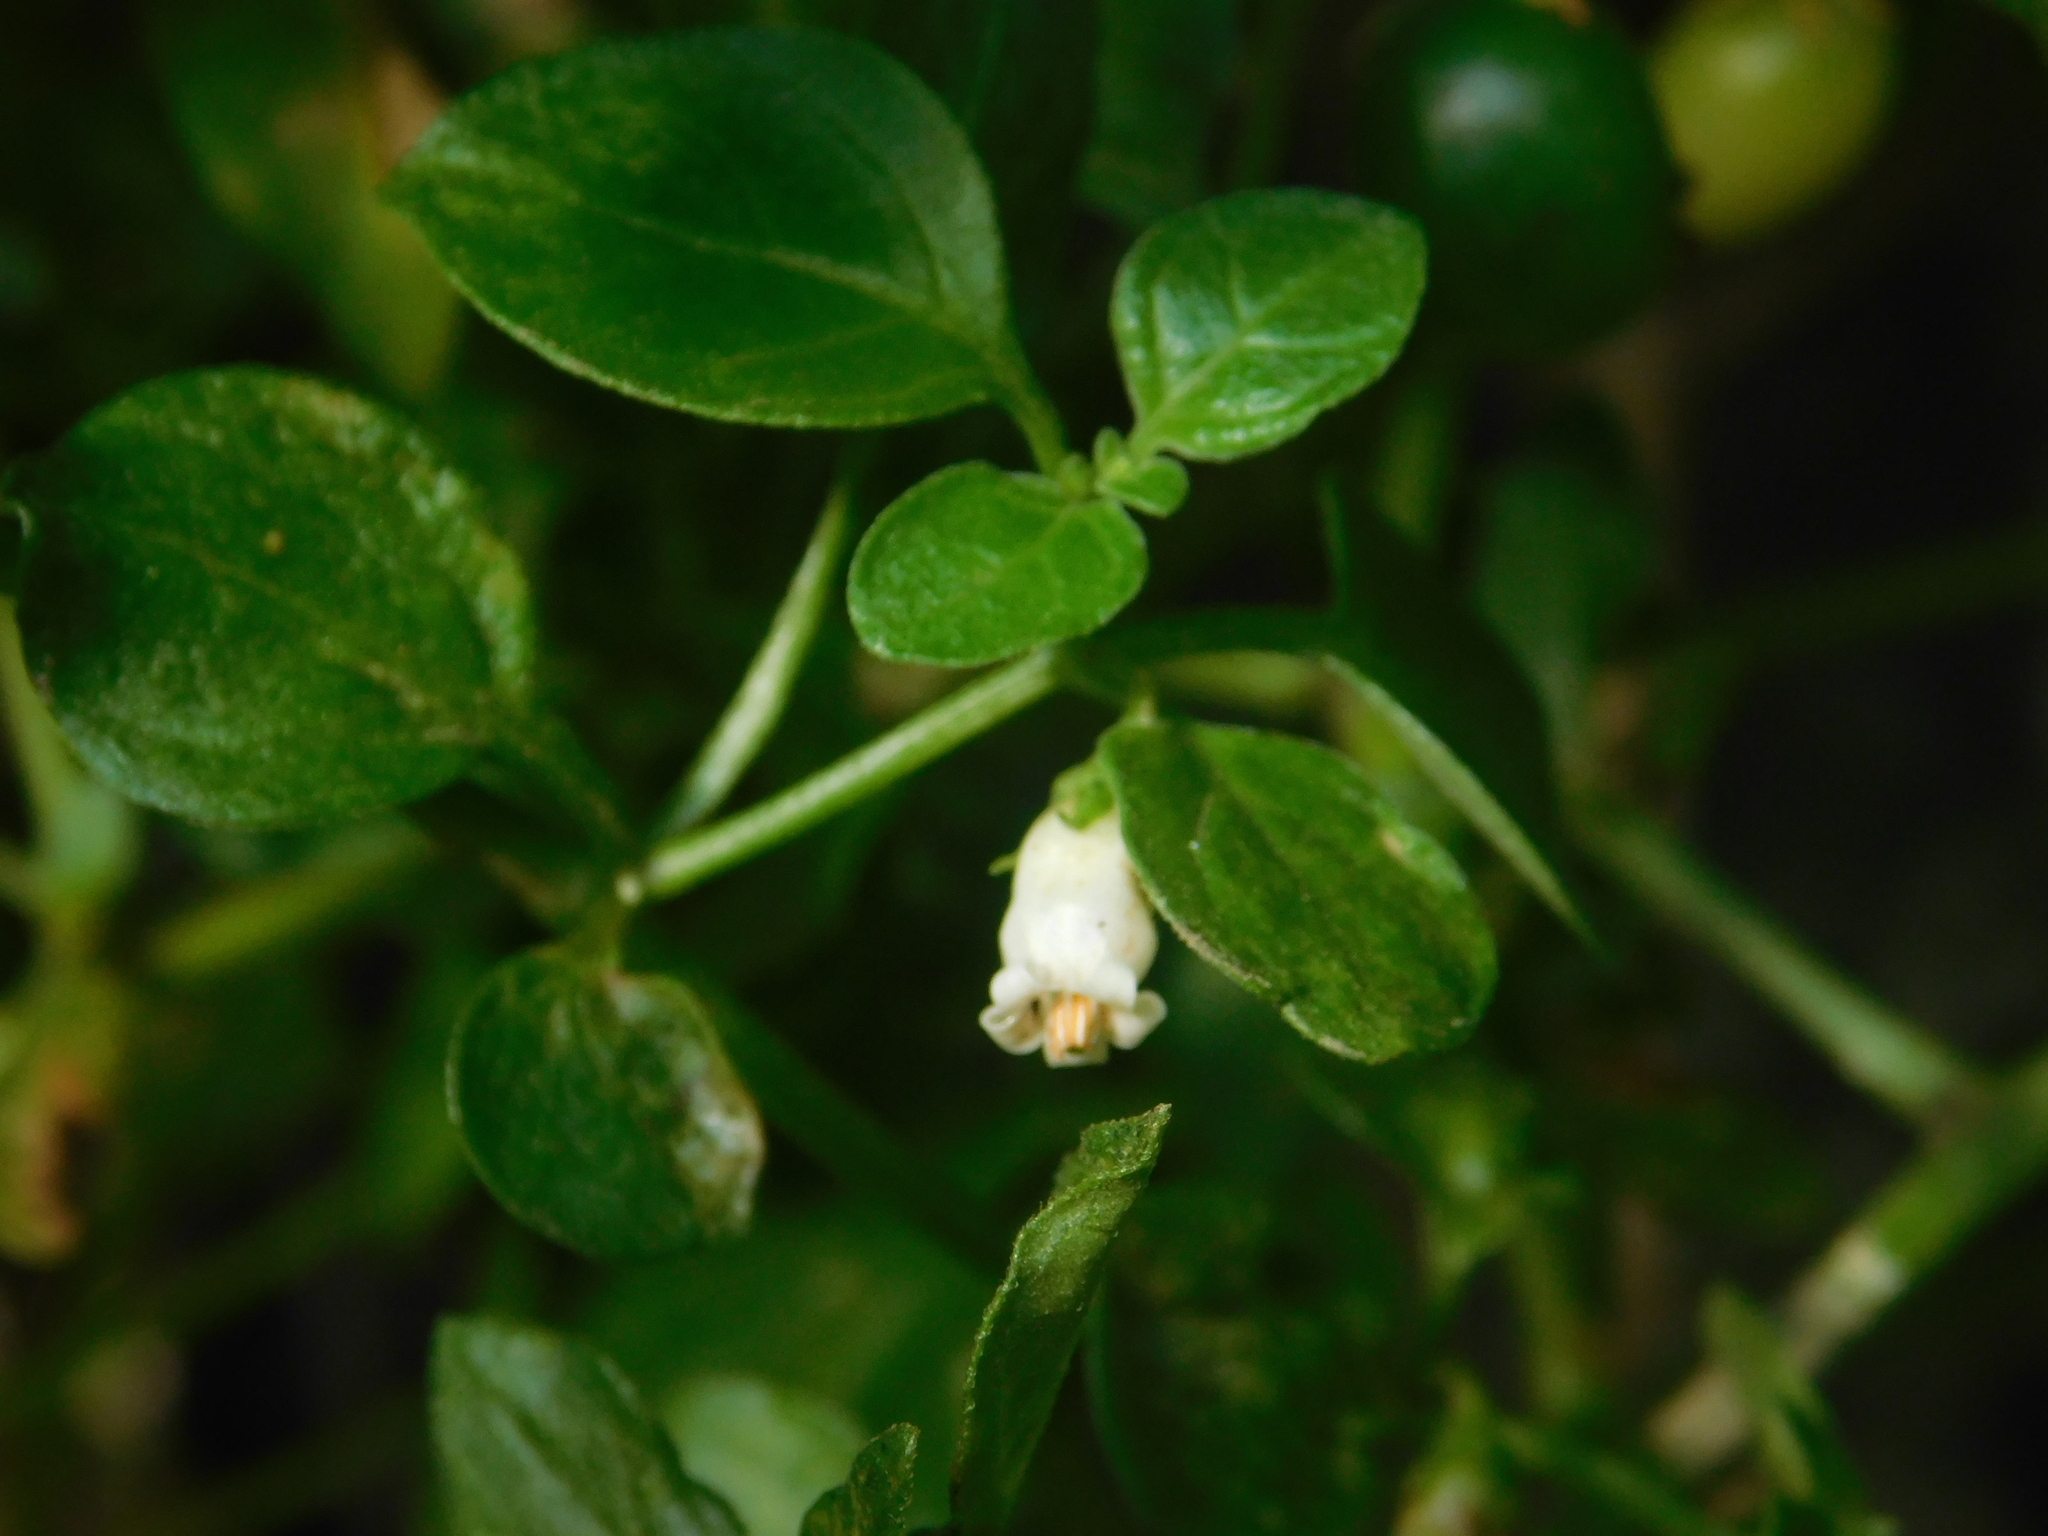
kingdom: Plantae
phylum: Tracheophyta
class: Magnoliopsida
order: Solanales
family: Solanaceae
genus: Salpichroa
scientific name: Salpichroa origanifolia
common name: Lily-of-the-valley-vine
